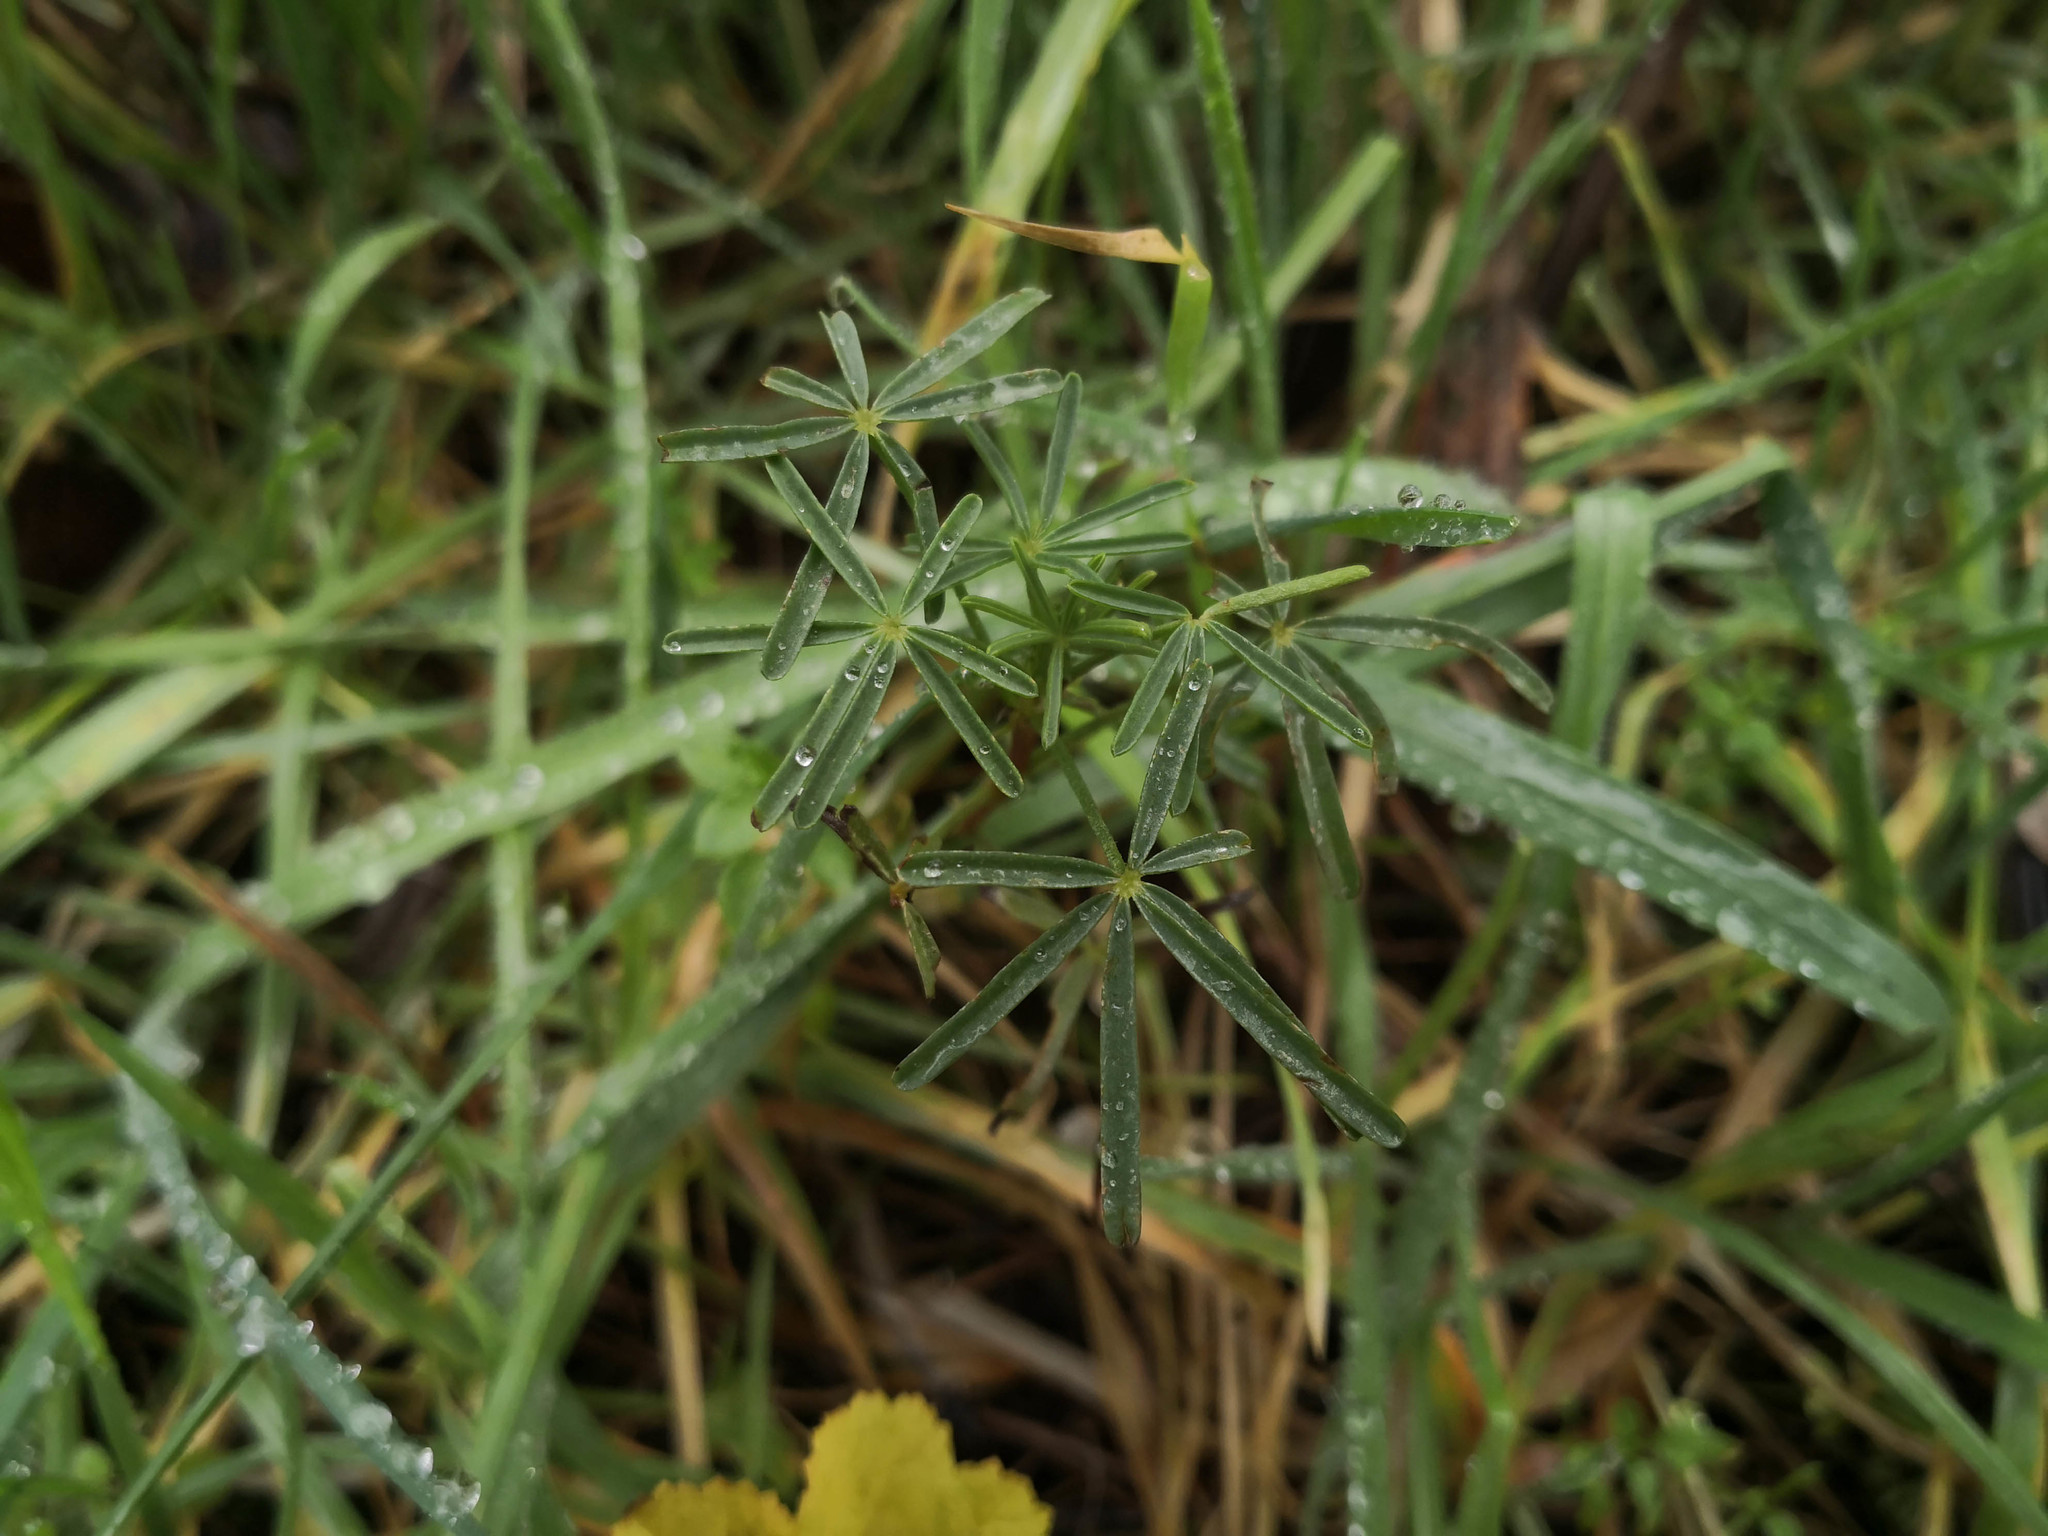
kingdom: Plantae
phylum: Tracheophyta
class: Magnoliopsida
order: Fabales
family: Fabaceae
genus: Lupinus
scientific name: Lupinus angustifolius
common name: Narrow-leaved lupin
